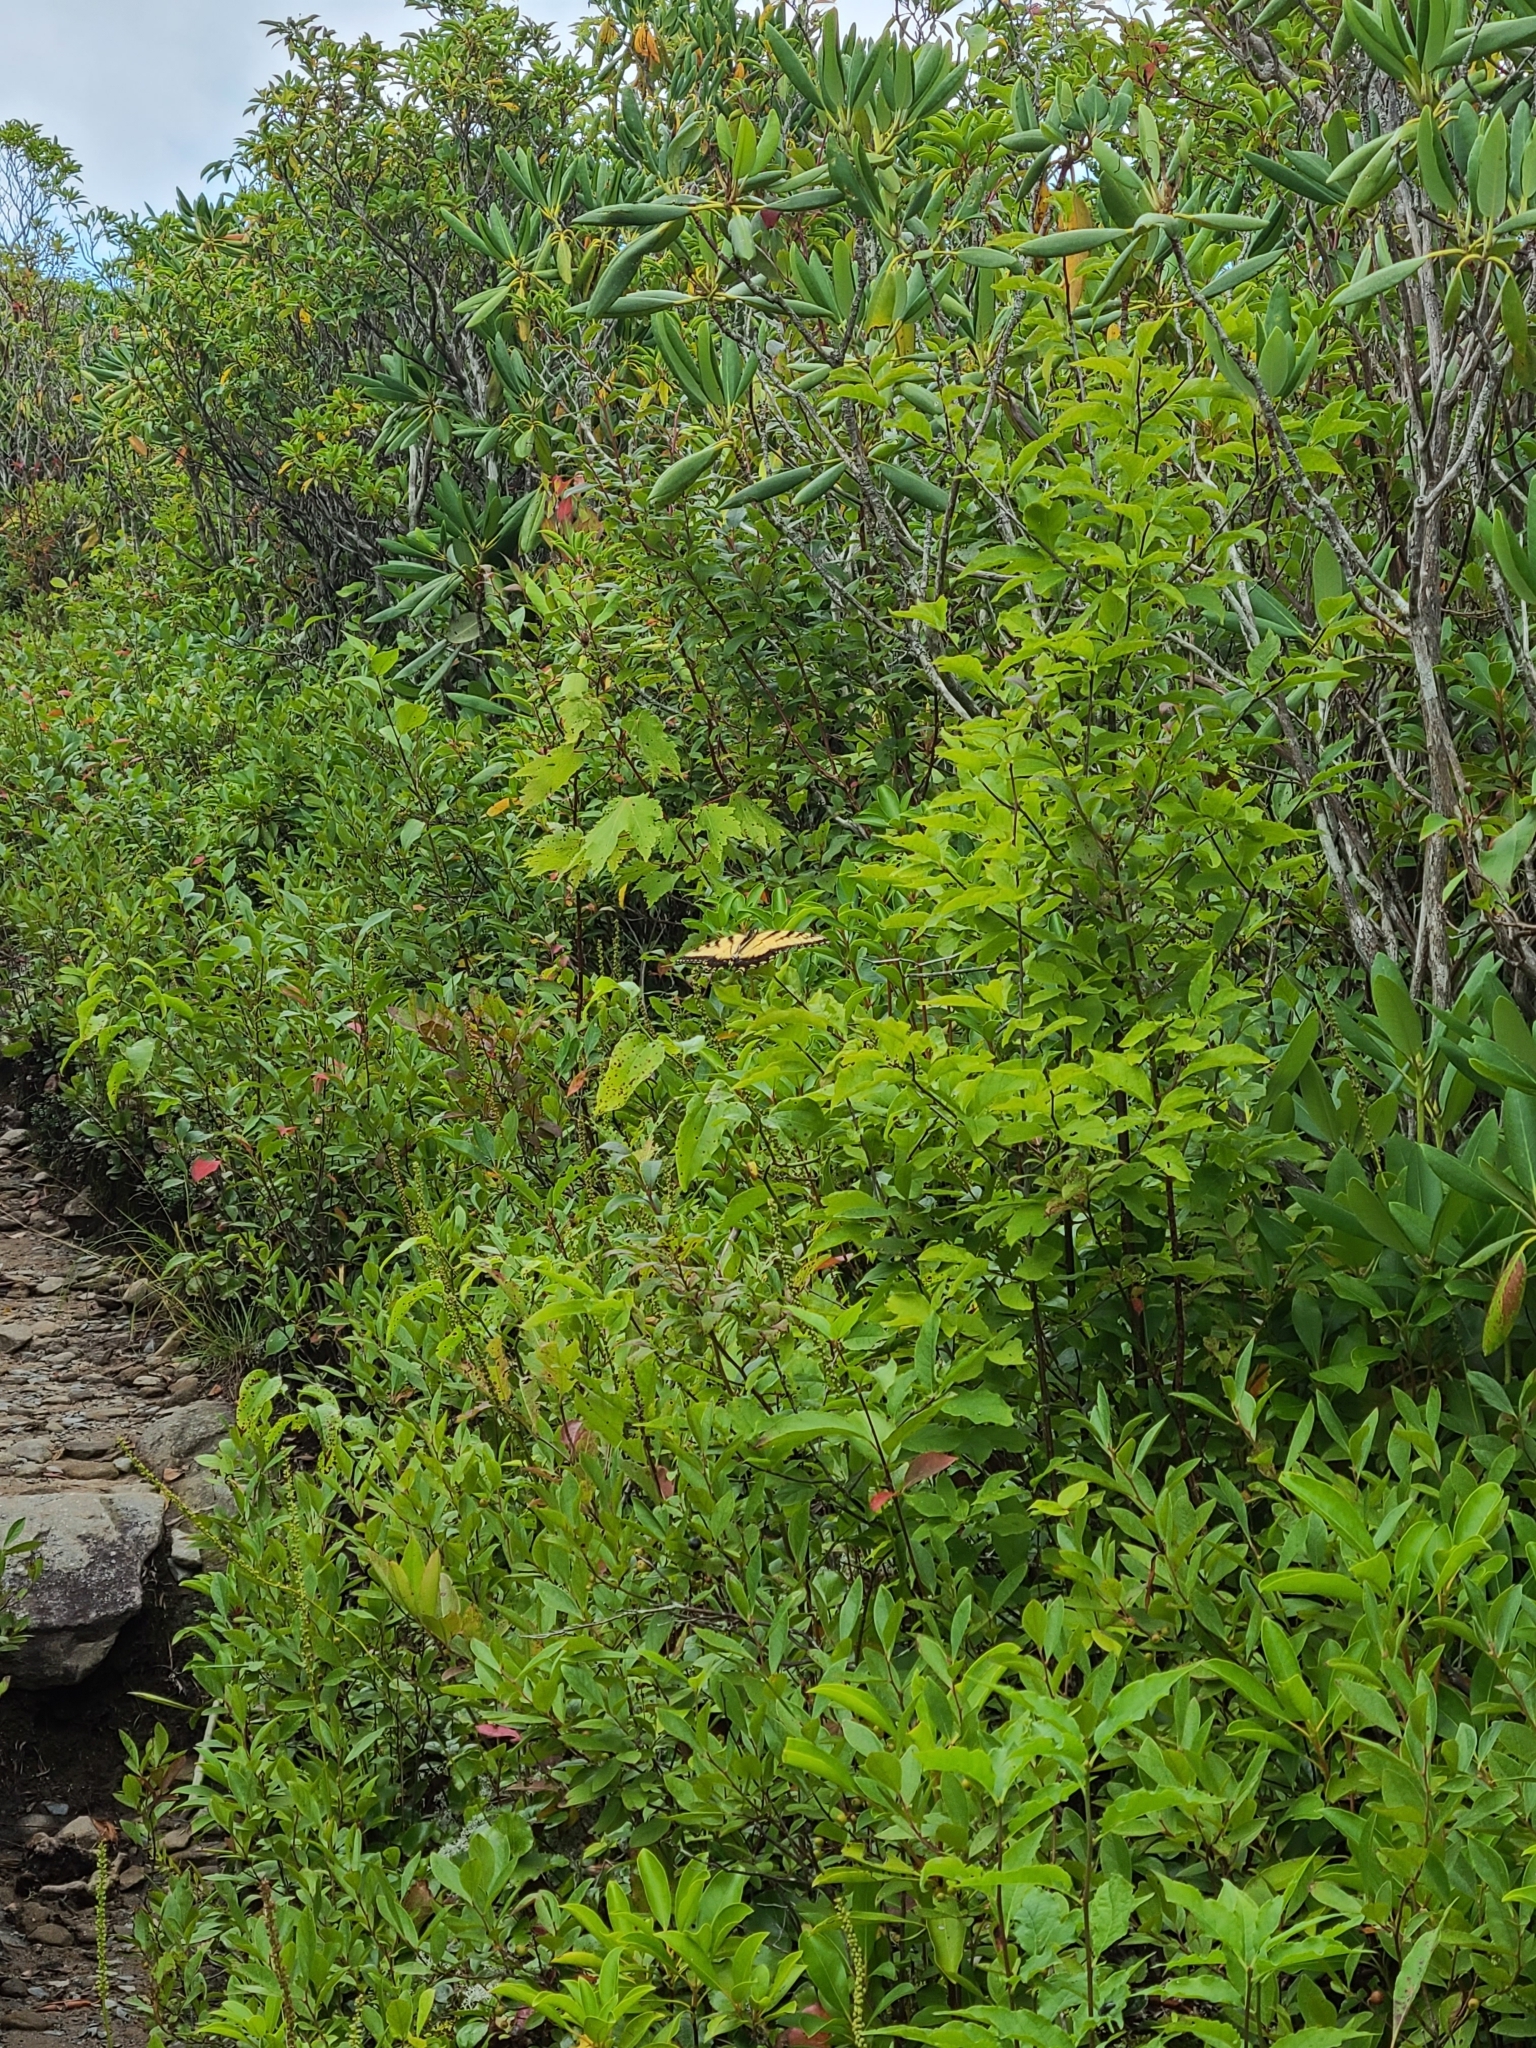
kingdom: Animalia
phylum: Arthropoda
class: Insecta
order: Lepidoptera
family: Papilionidae
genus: Papilio
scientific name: Papilio glaucus
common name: Tiger swallowtail
